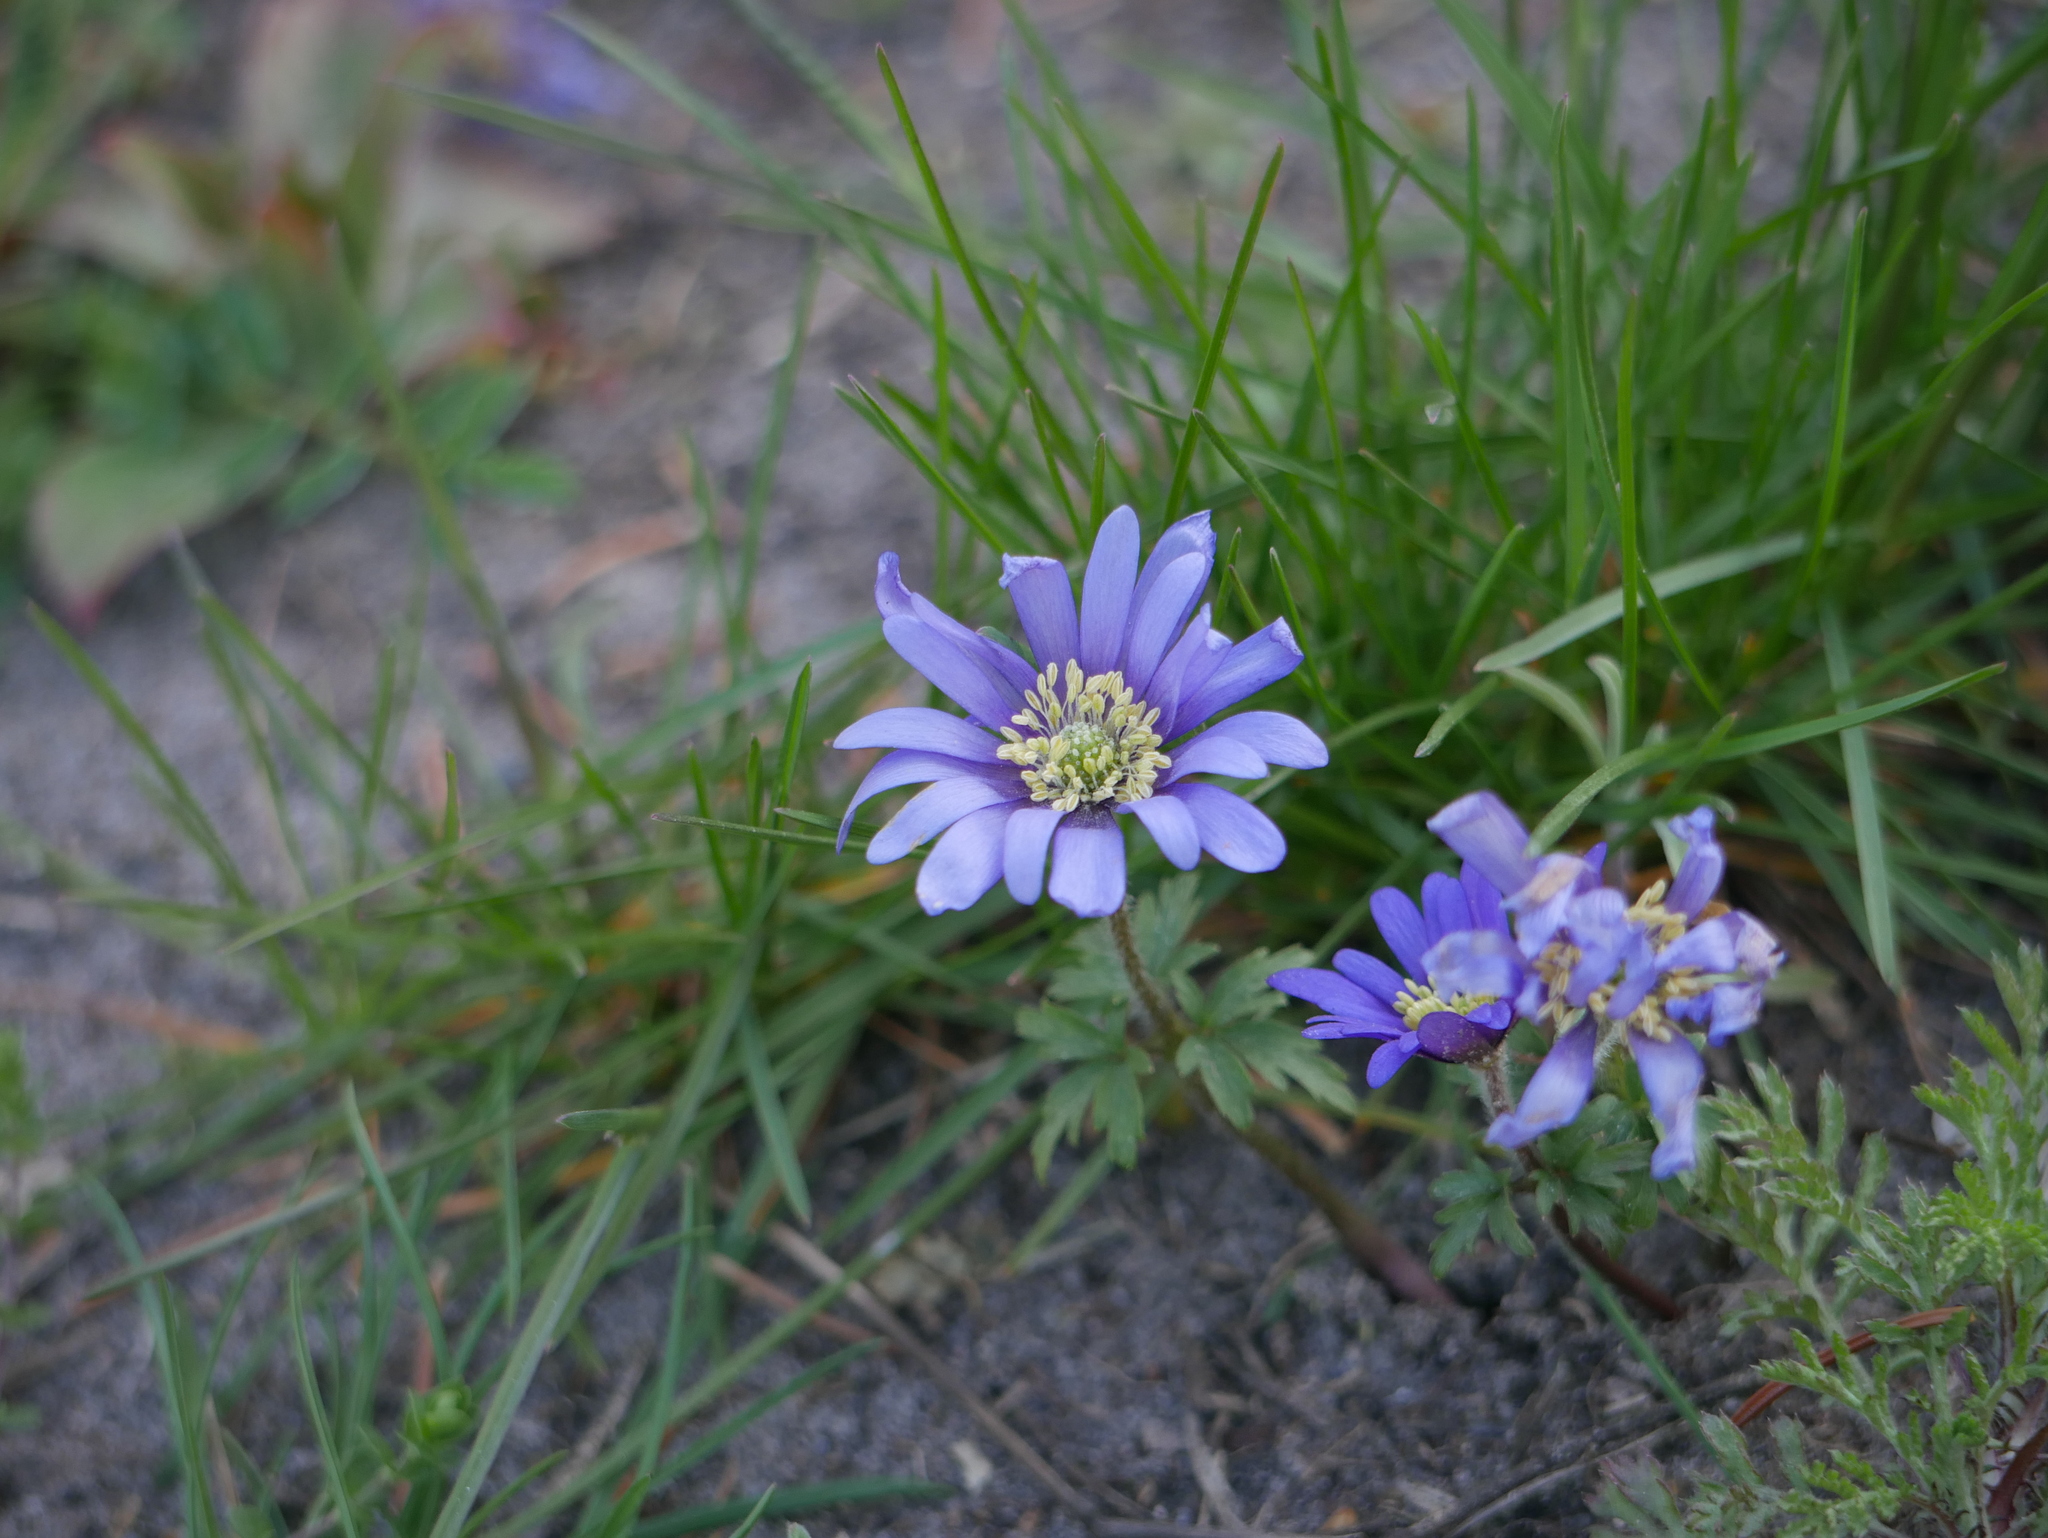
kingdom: Plantae
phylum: Tracheophyta
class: Magnoliopsida
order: Ranunculales
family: Ranunculaceae
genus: Anemone
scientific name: Anemone blanda
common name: Balkan anemone
